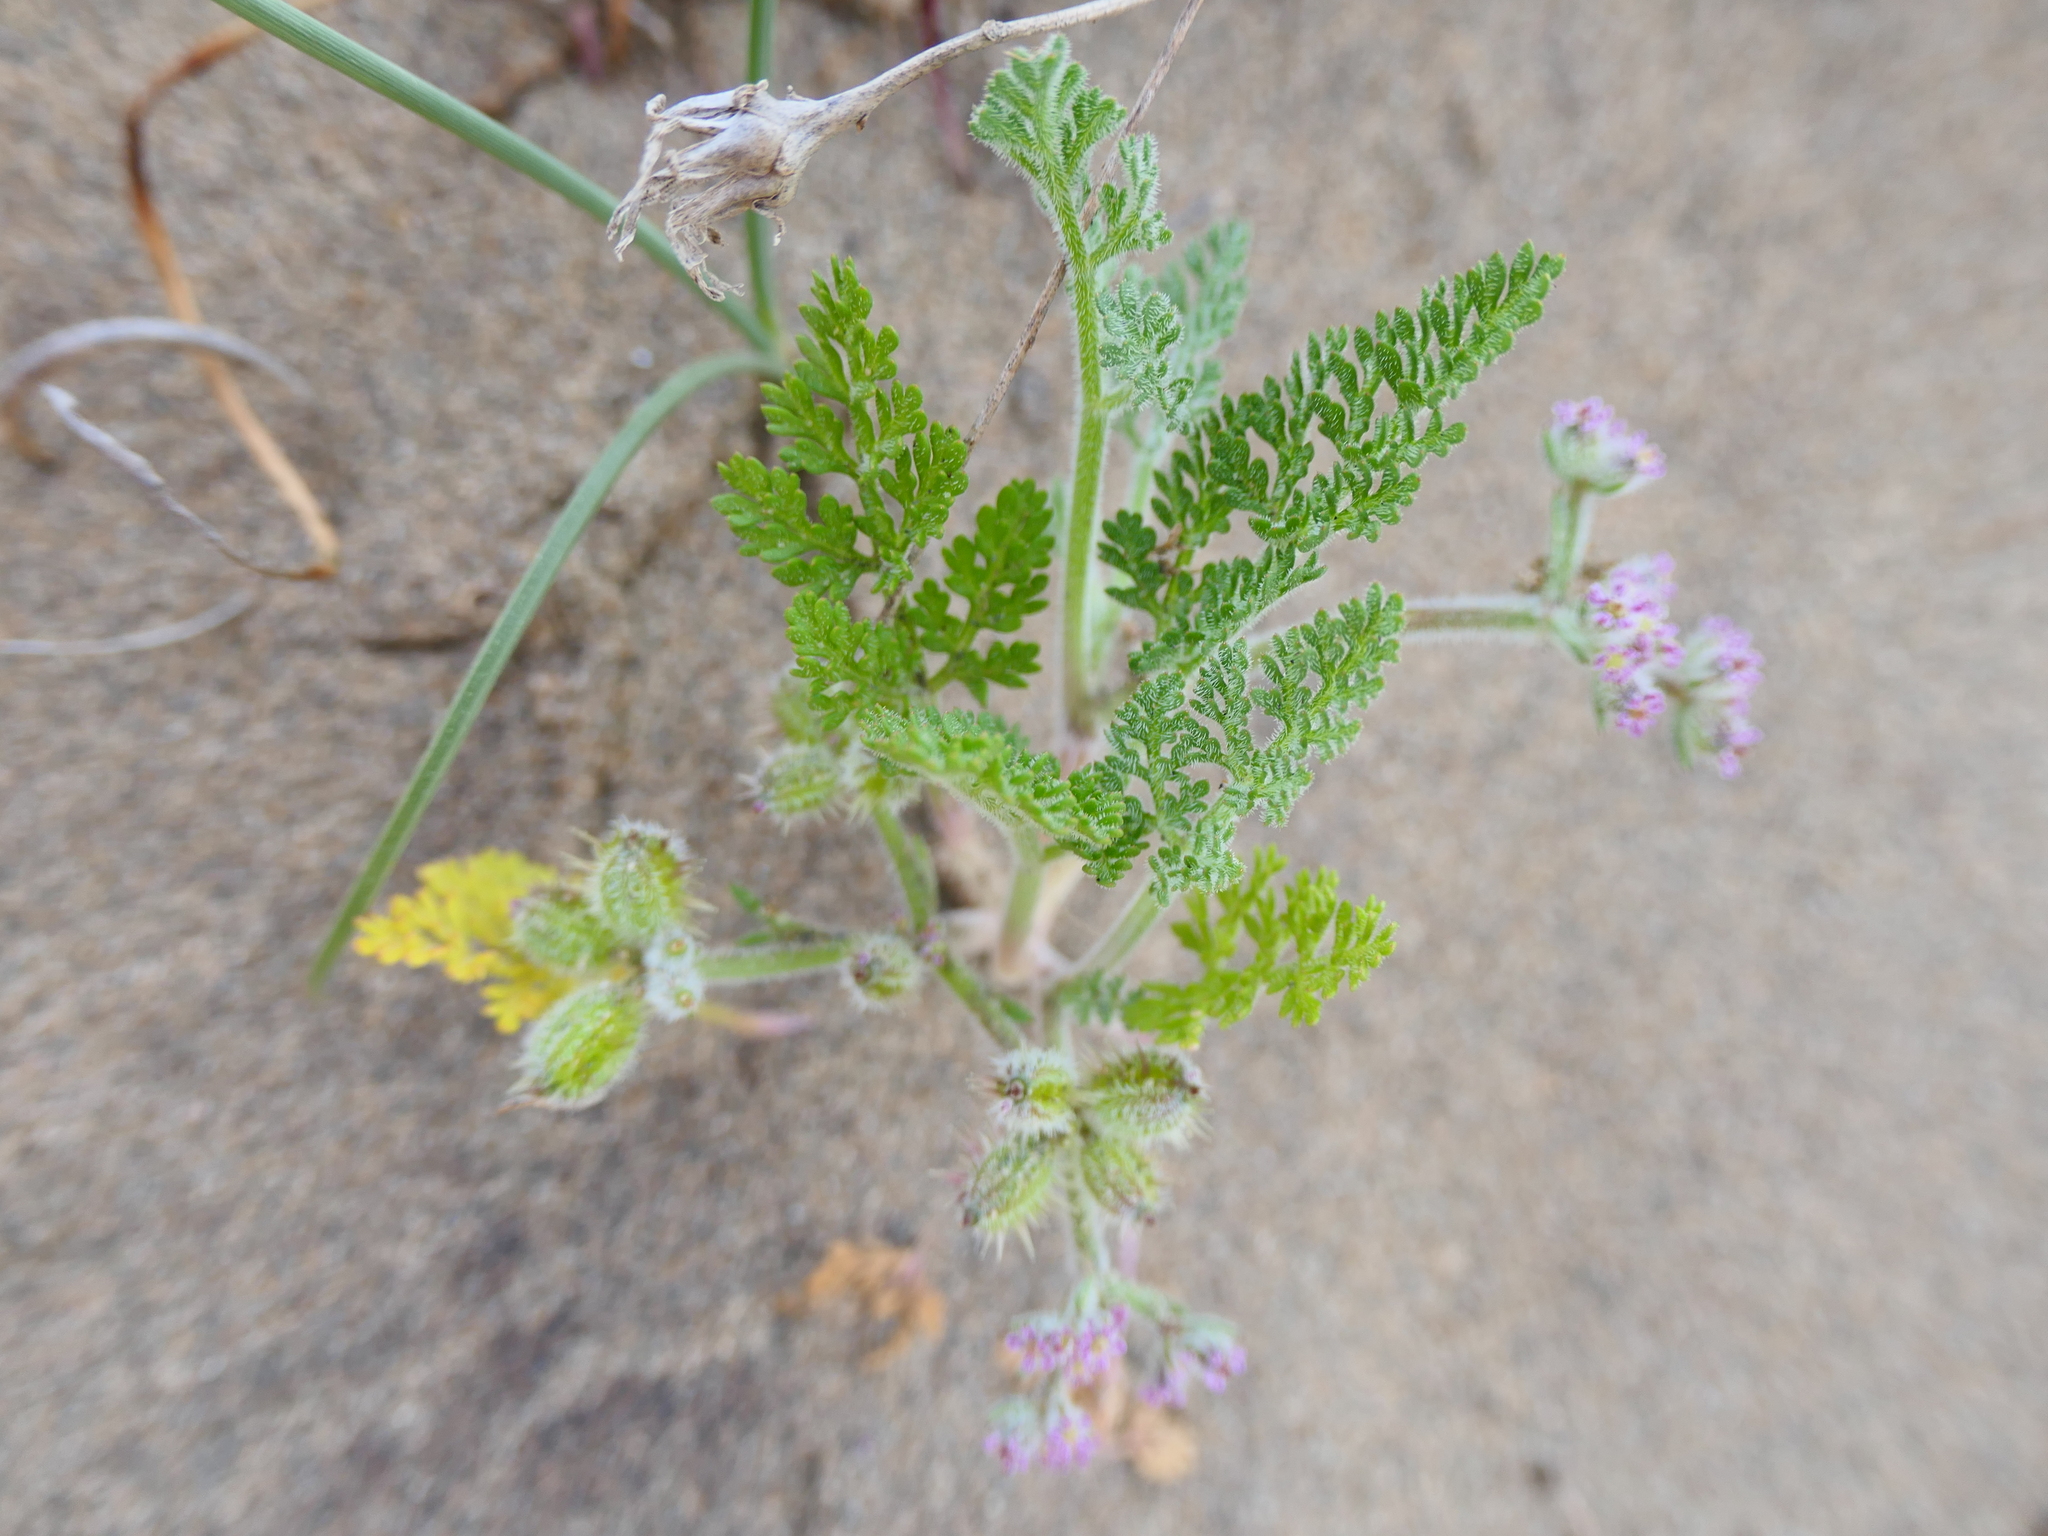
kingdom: Plantae
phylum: Tracheophyta
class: Magnoliopsida
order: Apiales
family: Apiaceae
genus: Daucus
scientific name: Daucus pumilus
